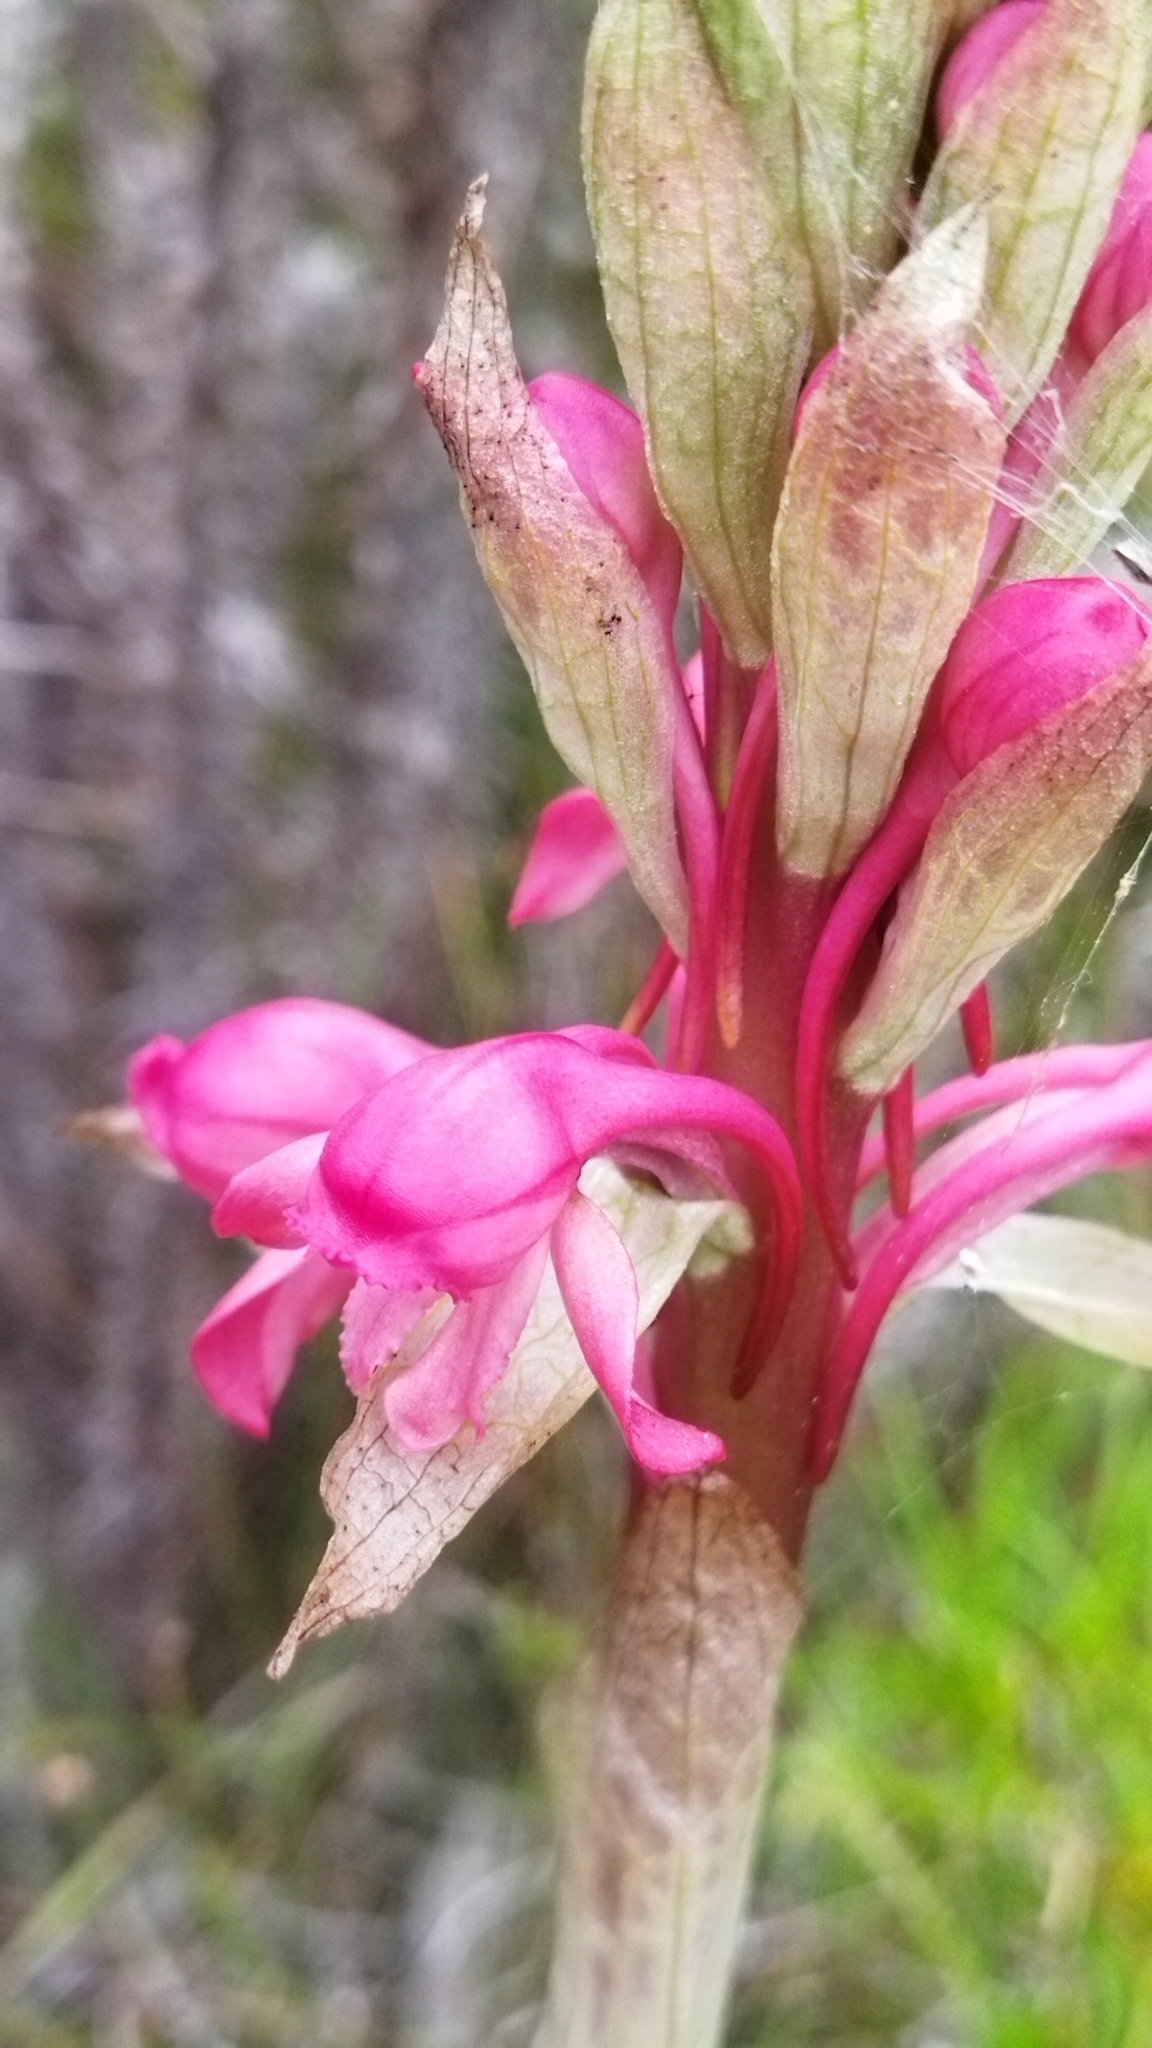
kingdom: Plantae
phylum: Tracheophyta
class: Liliopsida
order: Asparagales
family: Orchidaceae
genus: Satyrium
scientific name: Satyrium princeps
